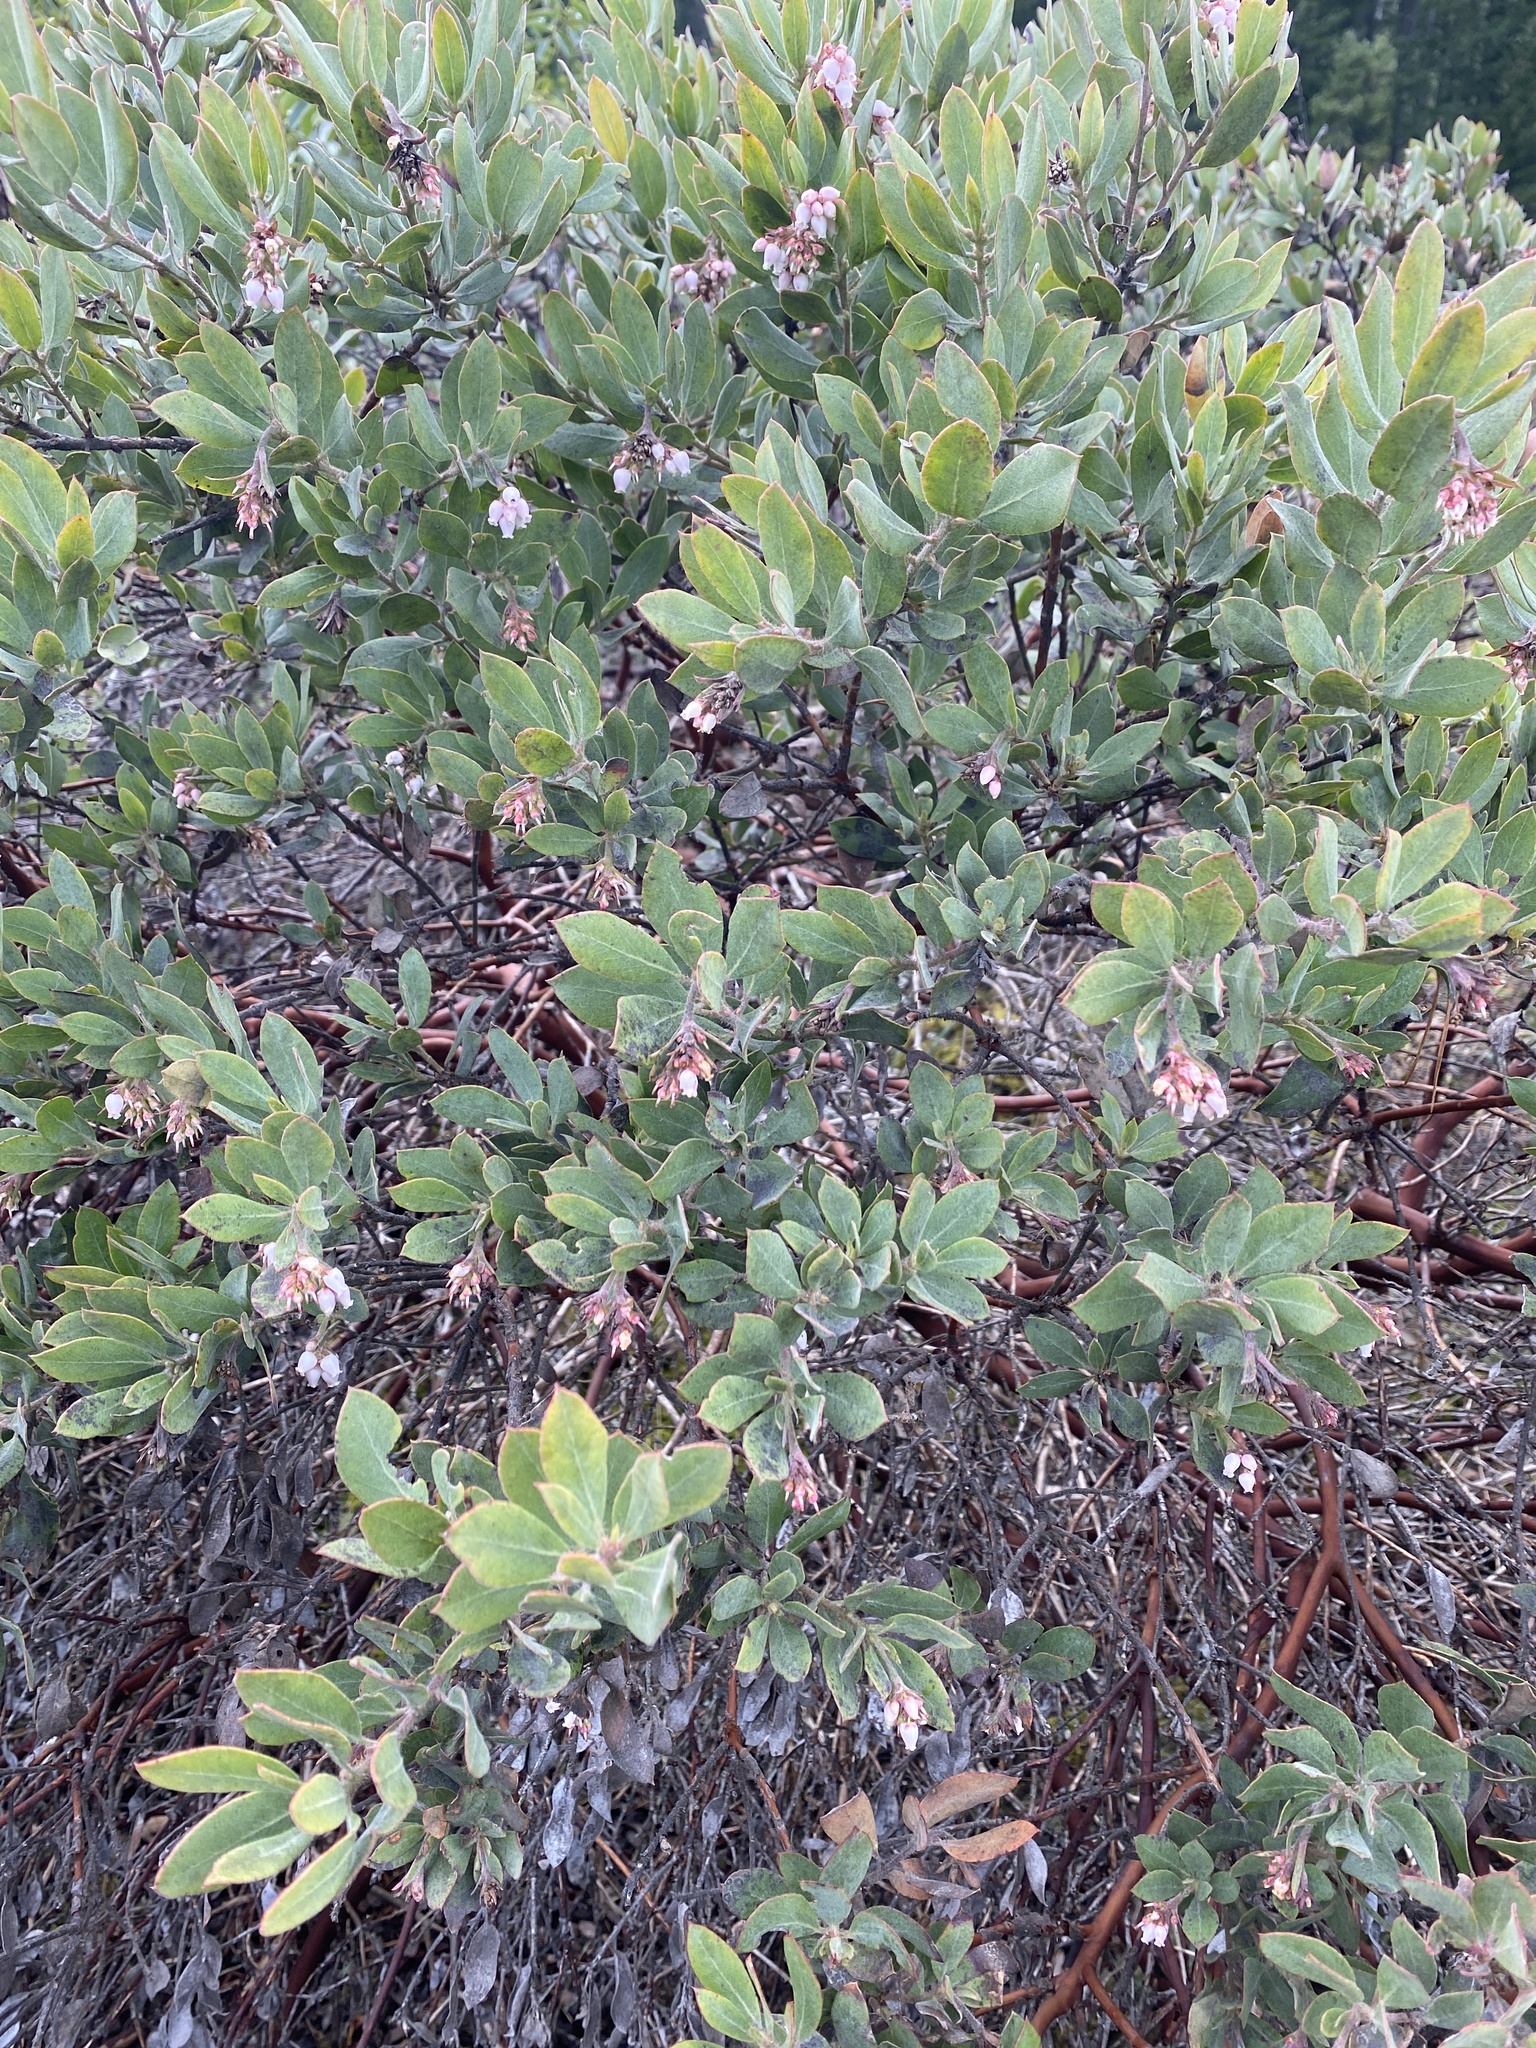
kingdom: Plantae
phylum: Tracheophyta
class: Magnoliopsida
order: Ericales
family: Ericaceae
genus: Arctostaphylos
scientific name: Arctostaphylos columbiana
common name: Bristly bearberry
